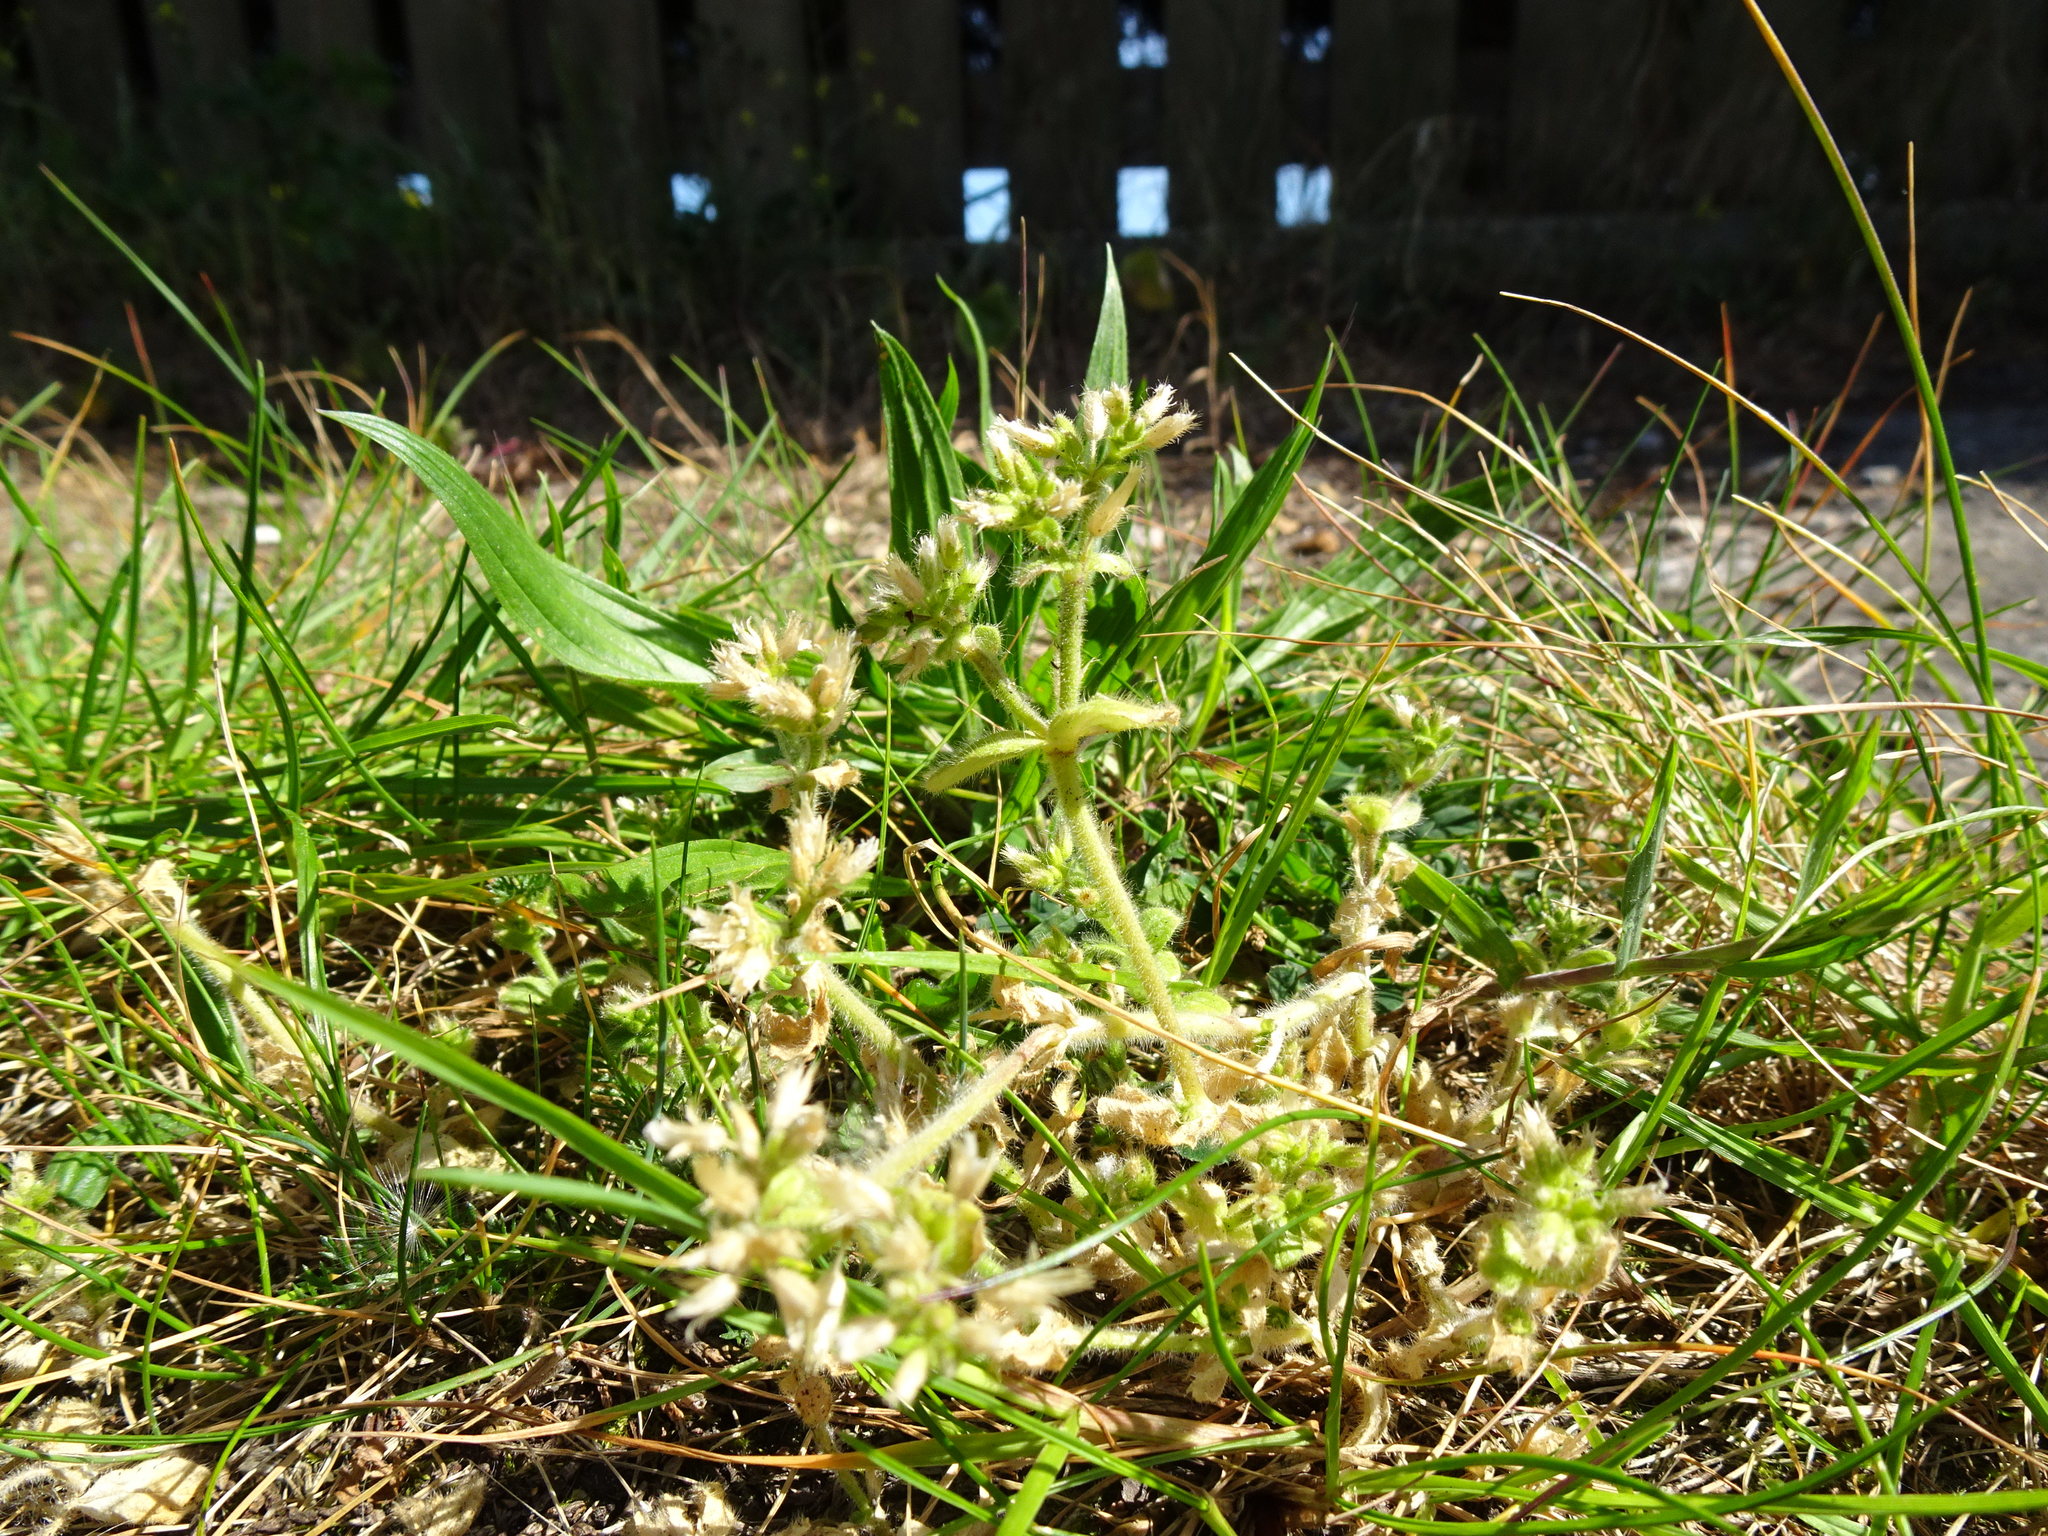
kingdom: Plantae
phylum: Tracheophyta
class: Magnoliopsida
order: Caryophyllales
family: Caryophyllaceae
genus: Cerastium
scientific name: Cerastium glomeratum
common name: Sticky chickweed
